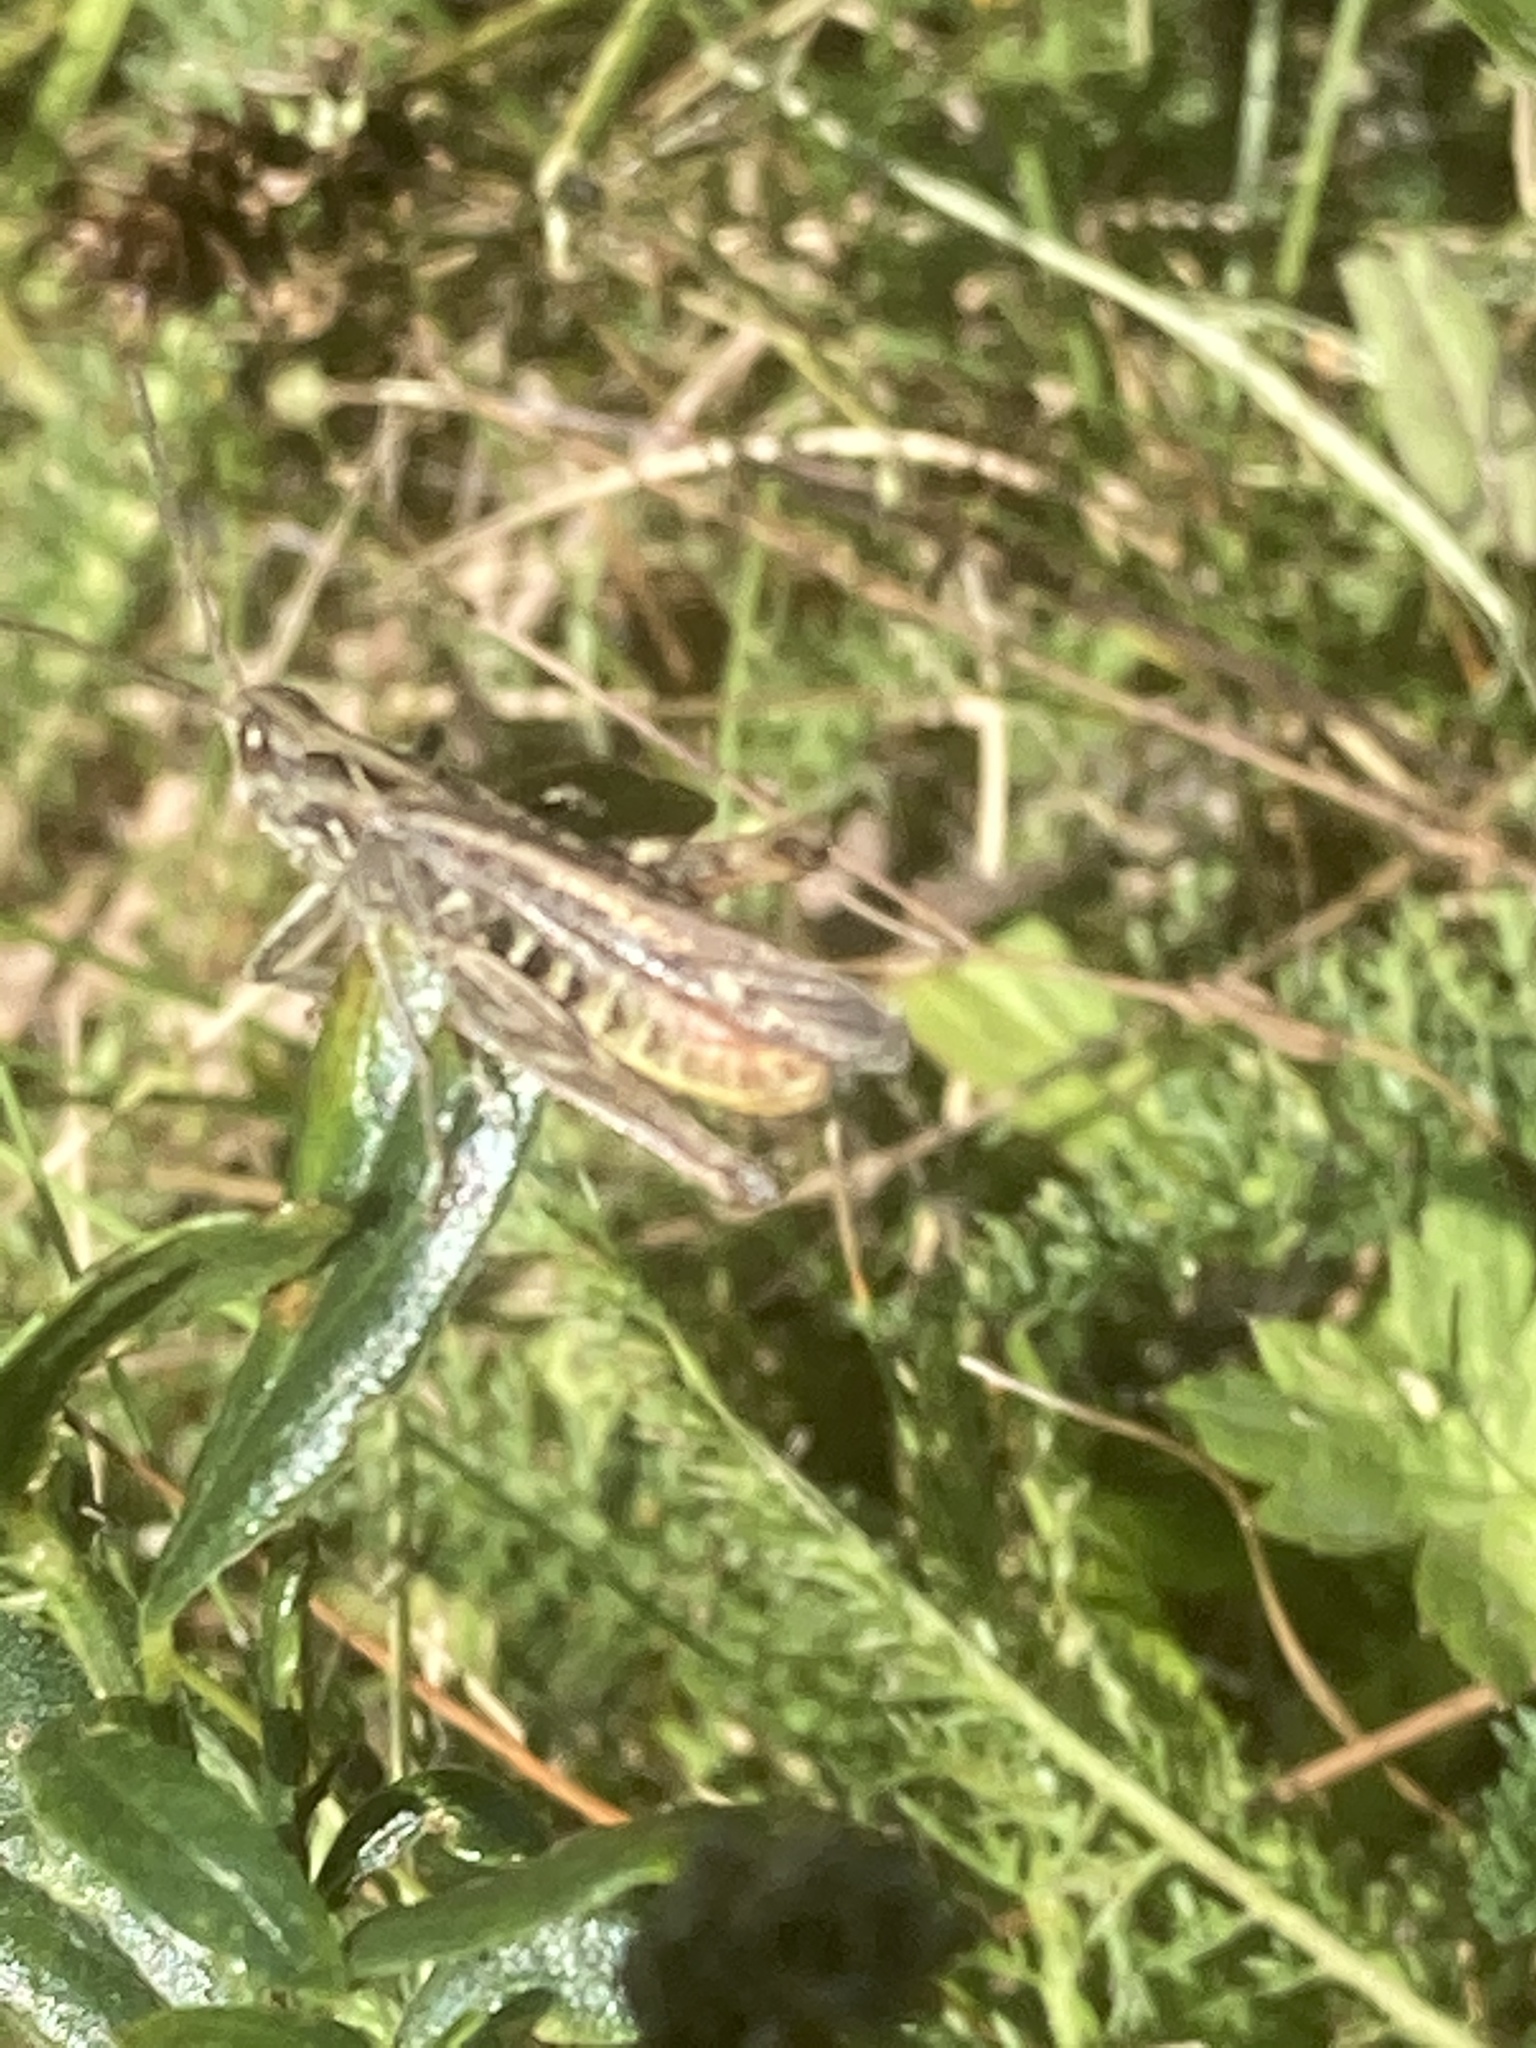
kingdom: Animalia
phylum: Arthropoda
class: Insecta
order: Orthoptera
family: Acrididae
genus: Chorthippus
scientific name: Chorthippus biguttulus
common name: Bow-winged grasshopper
